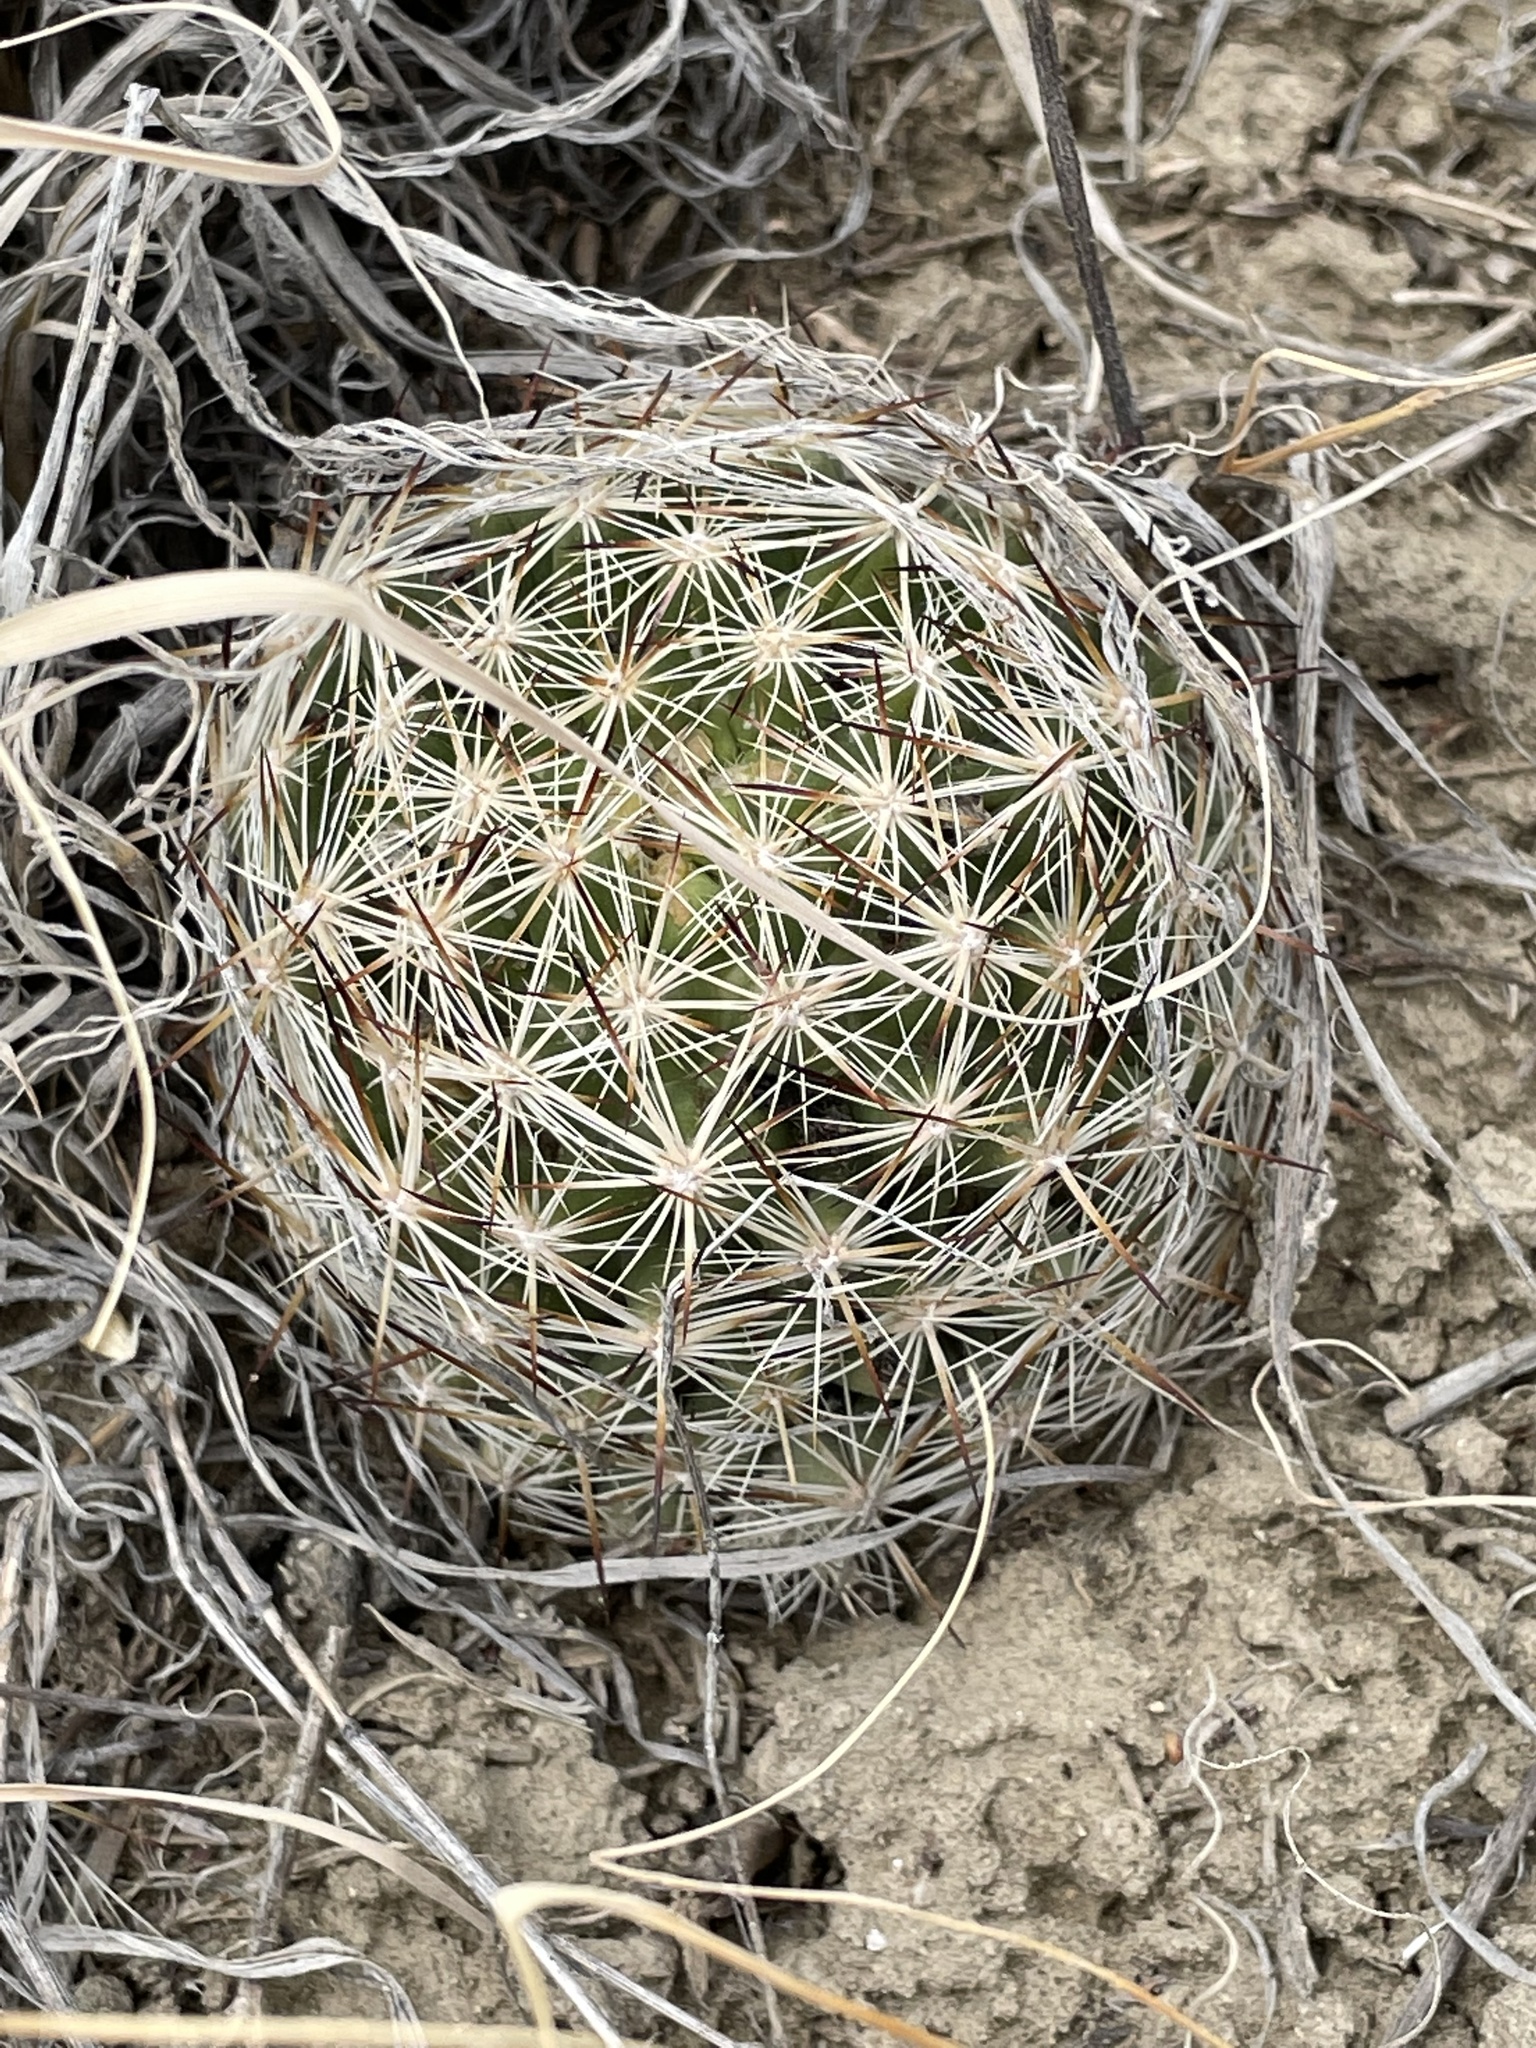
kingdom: Plantae
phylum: Tracheophyta
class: Magnoliopsida
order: Caryophyllales
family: Cactaceae
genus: Pelecyphora
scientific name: Pelecyphora vivipara
